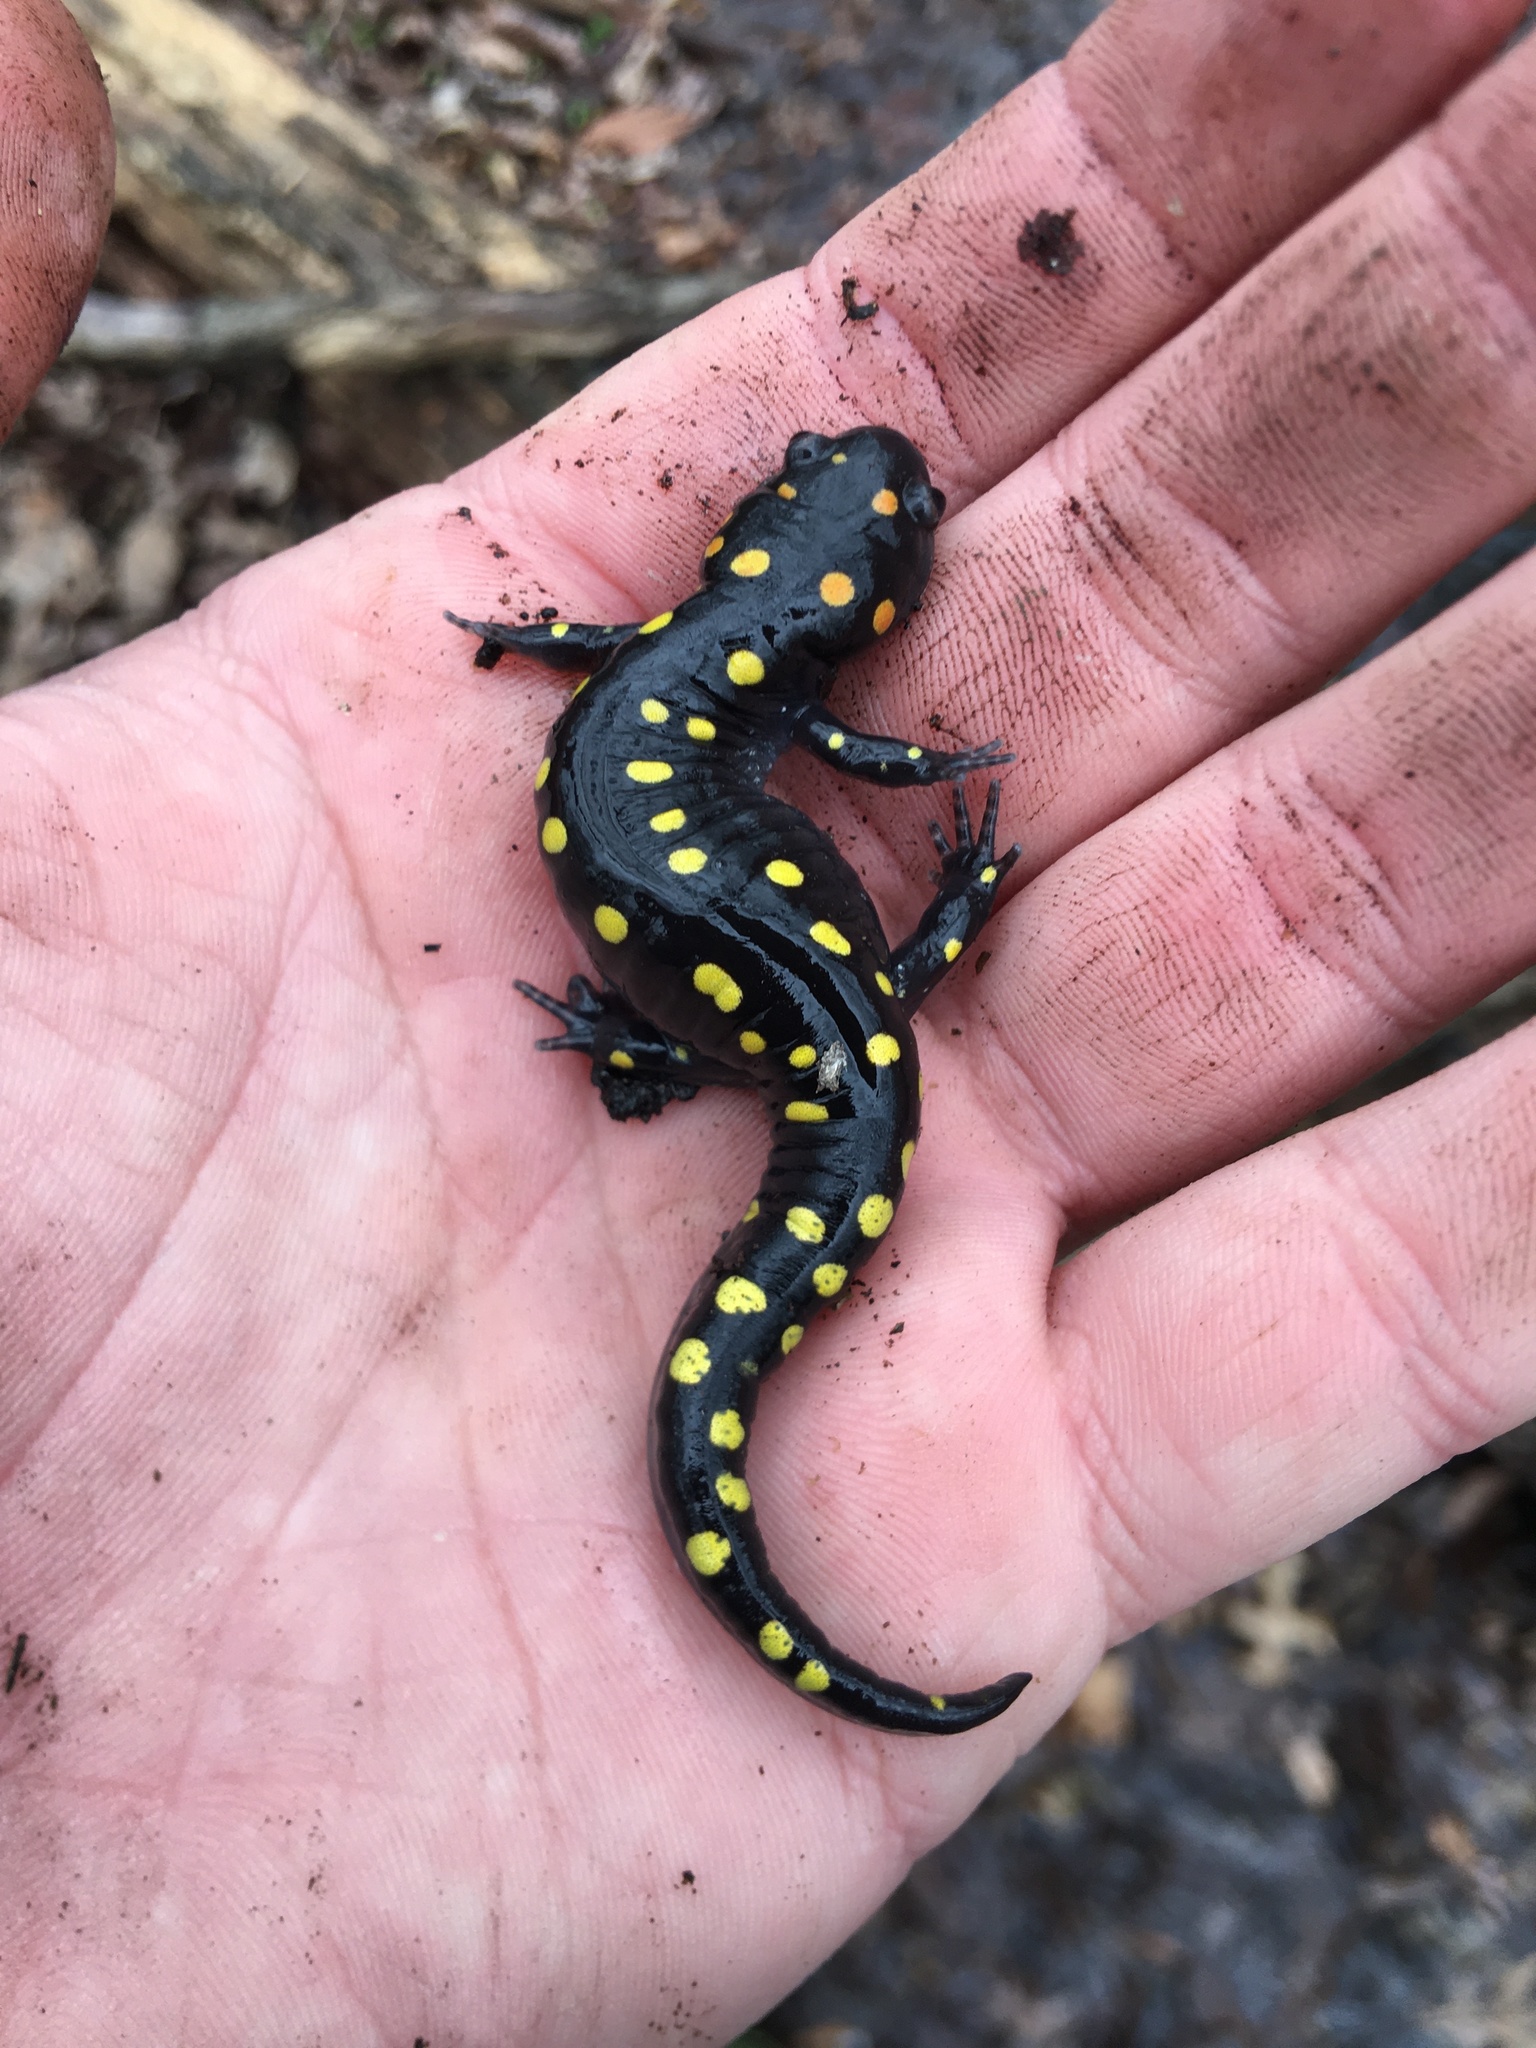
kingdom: Animalia
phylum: Chordata
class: Amphibia
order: Caudata
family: Ambystomatidae
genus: Ambystoma
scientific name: Ambystoma maculatum
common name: Spotted salamander
